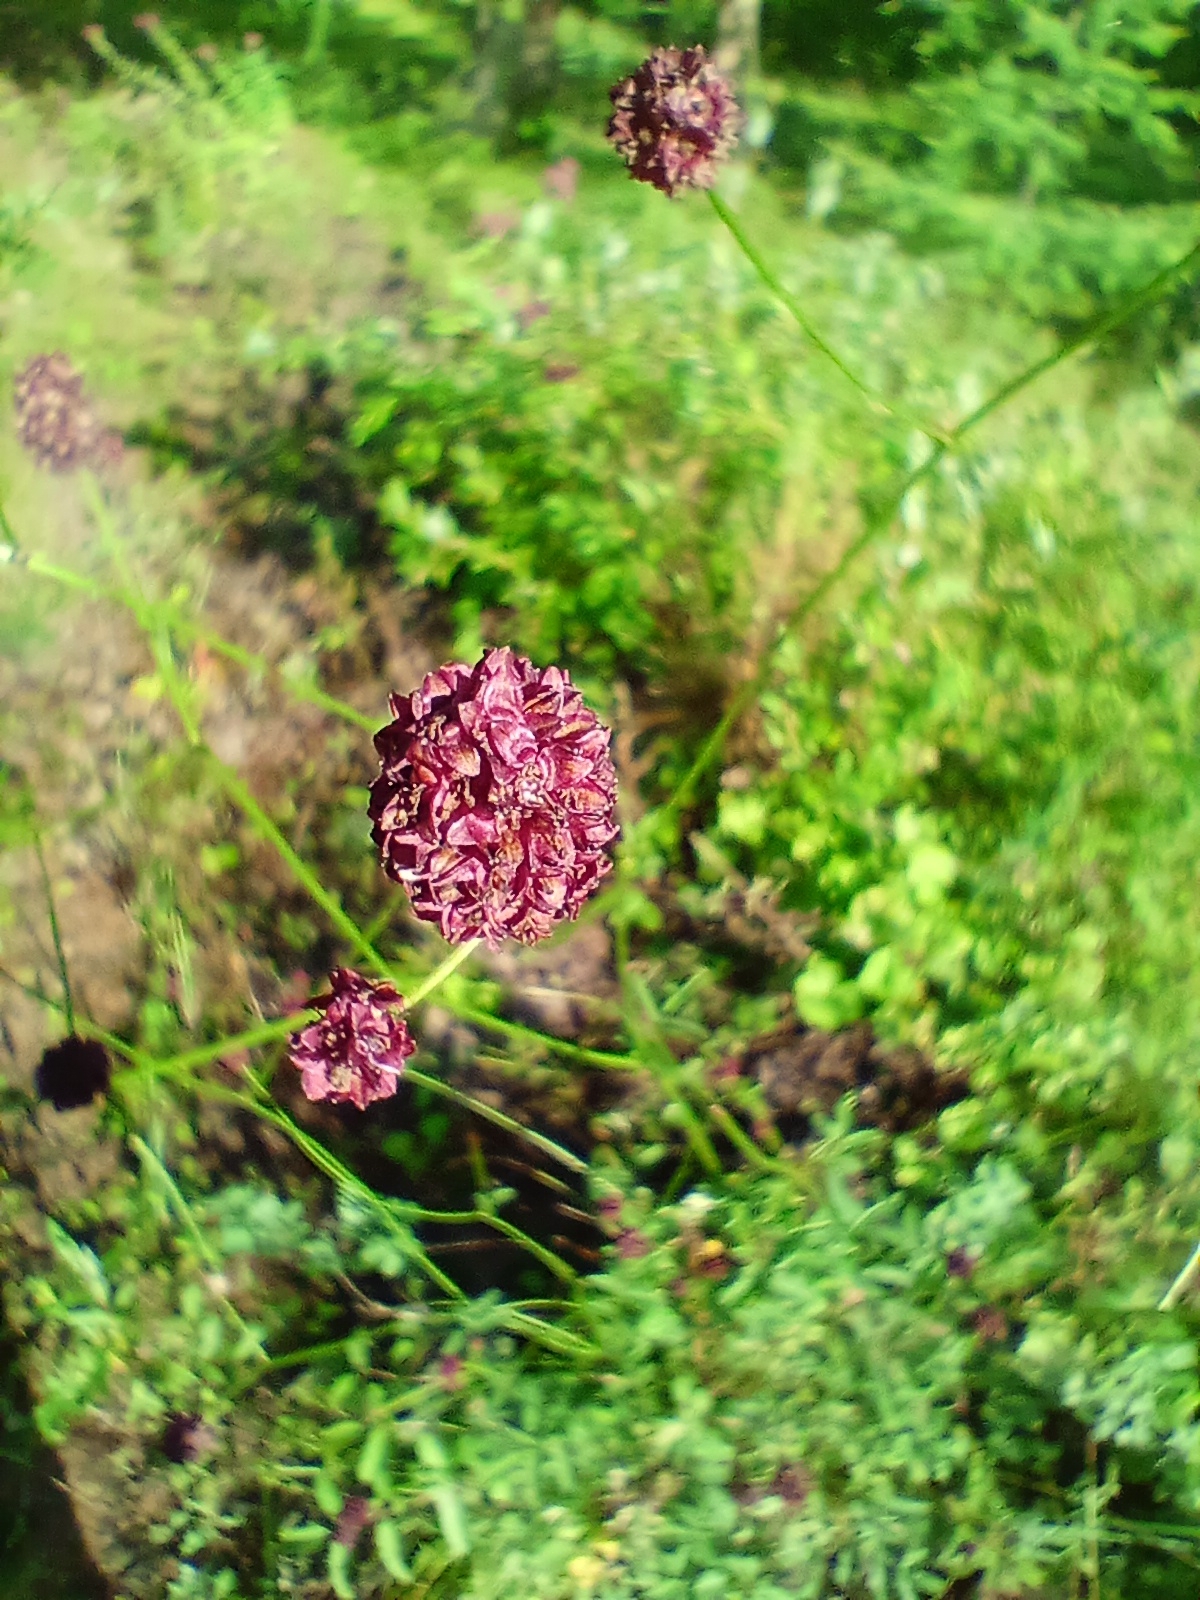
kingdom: Plantae
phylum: Tracheophyta
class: Magnoliopsida
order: Saxifragales
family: Crassulaceae
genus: Hylotelephium
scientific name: Hylotelephium telephium
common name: Live-forever
